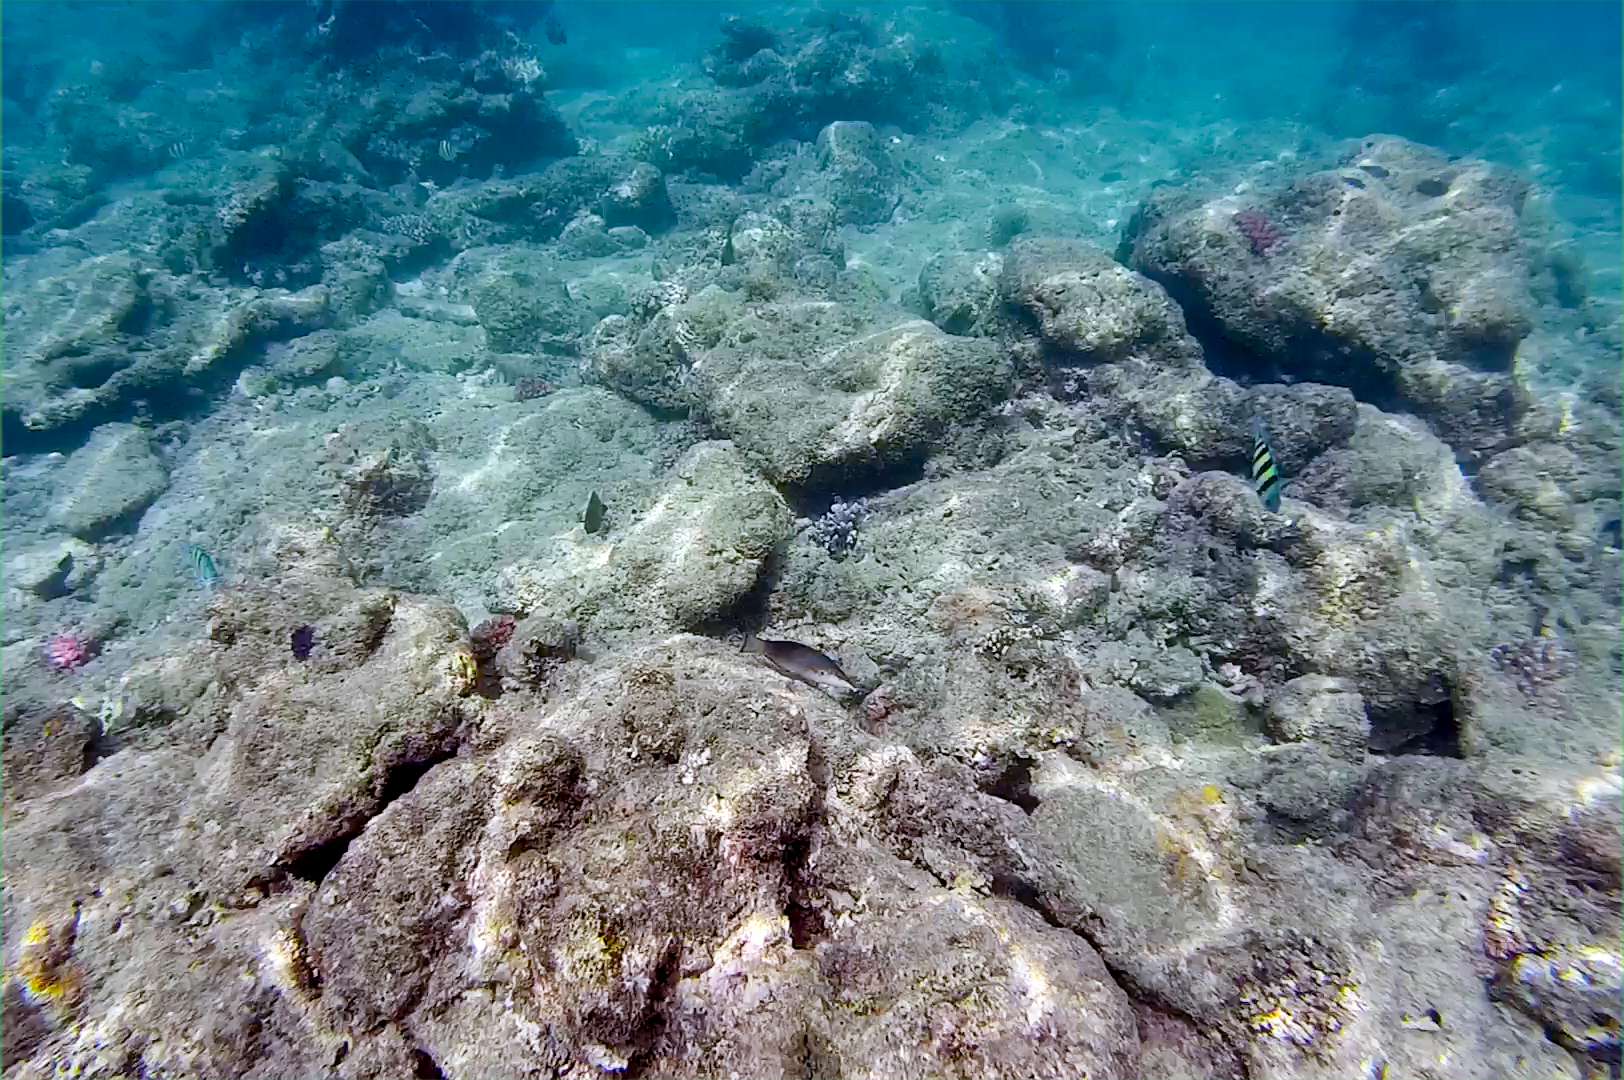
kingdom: Animalia
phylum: Chordata
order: Perciformes
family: Labridae
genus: Gomphosus
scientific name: Gomphosus caeruleus
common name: Bird wrasse
